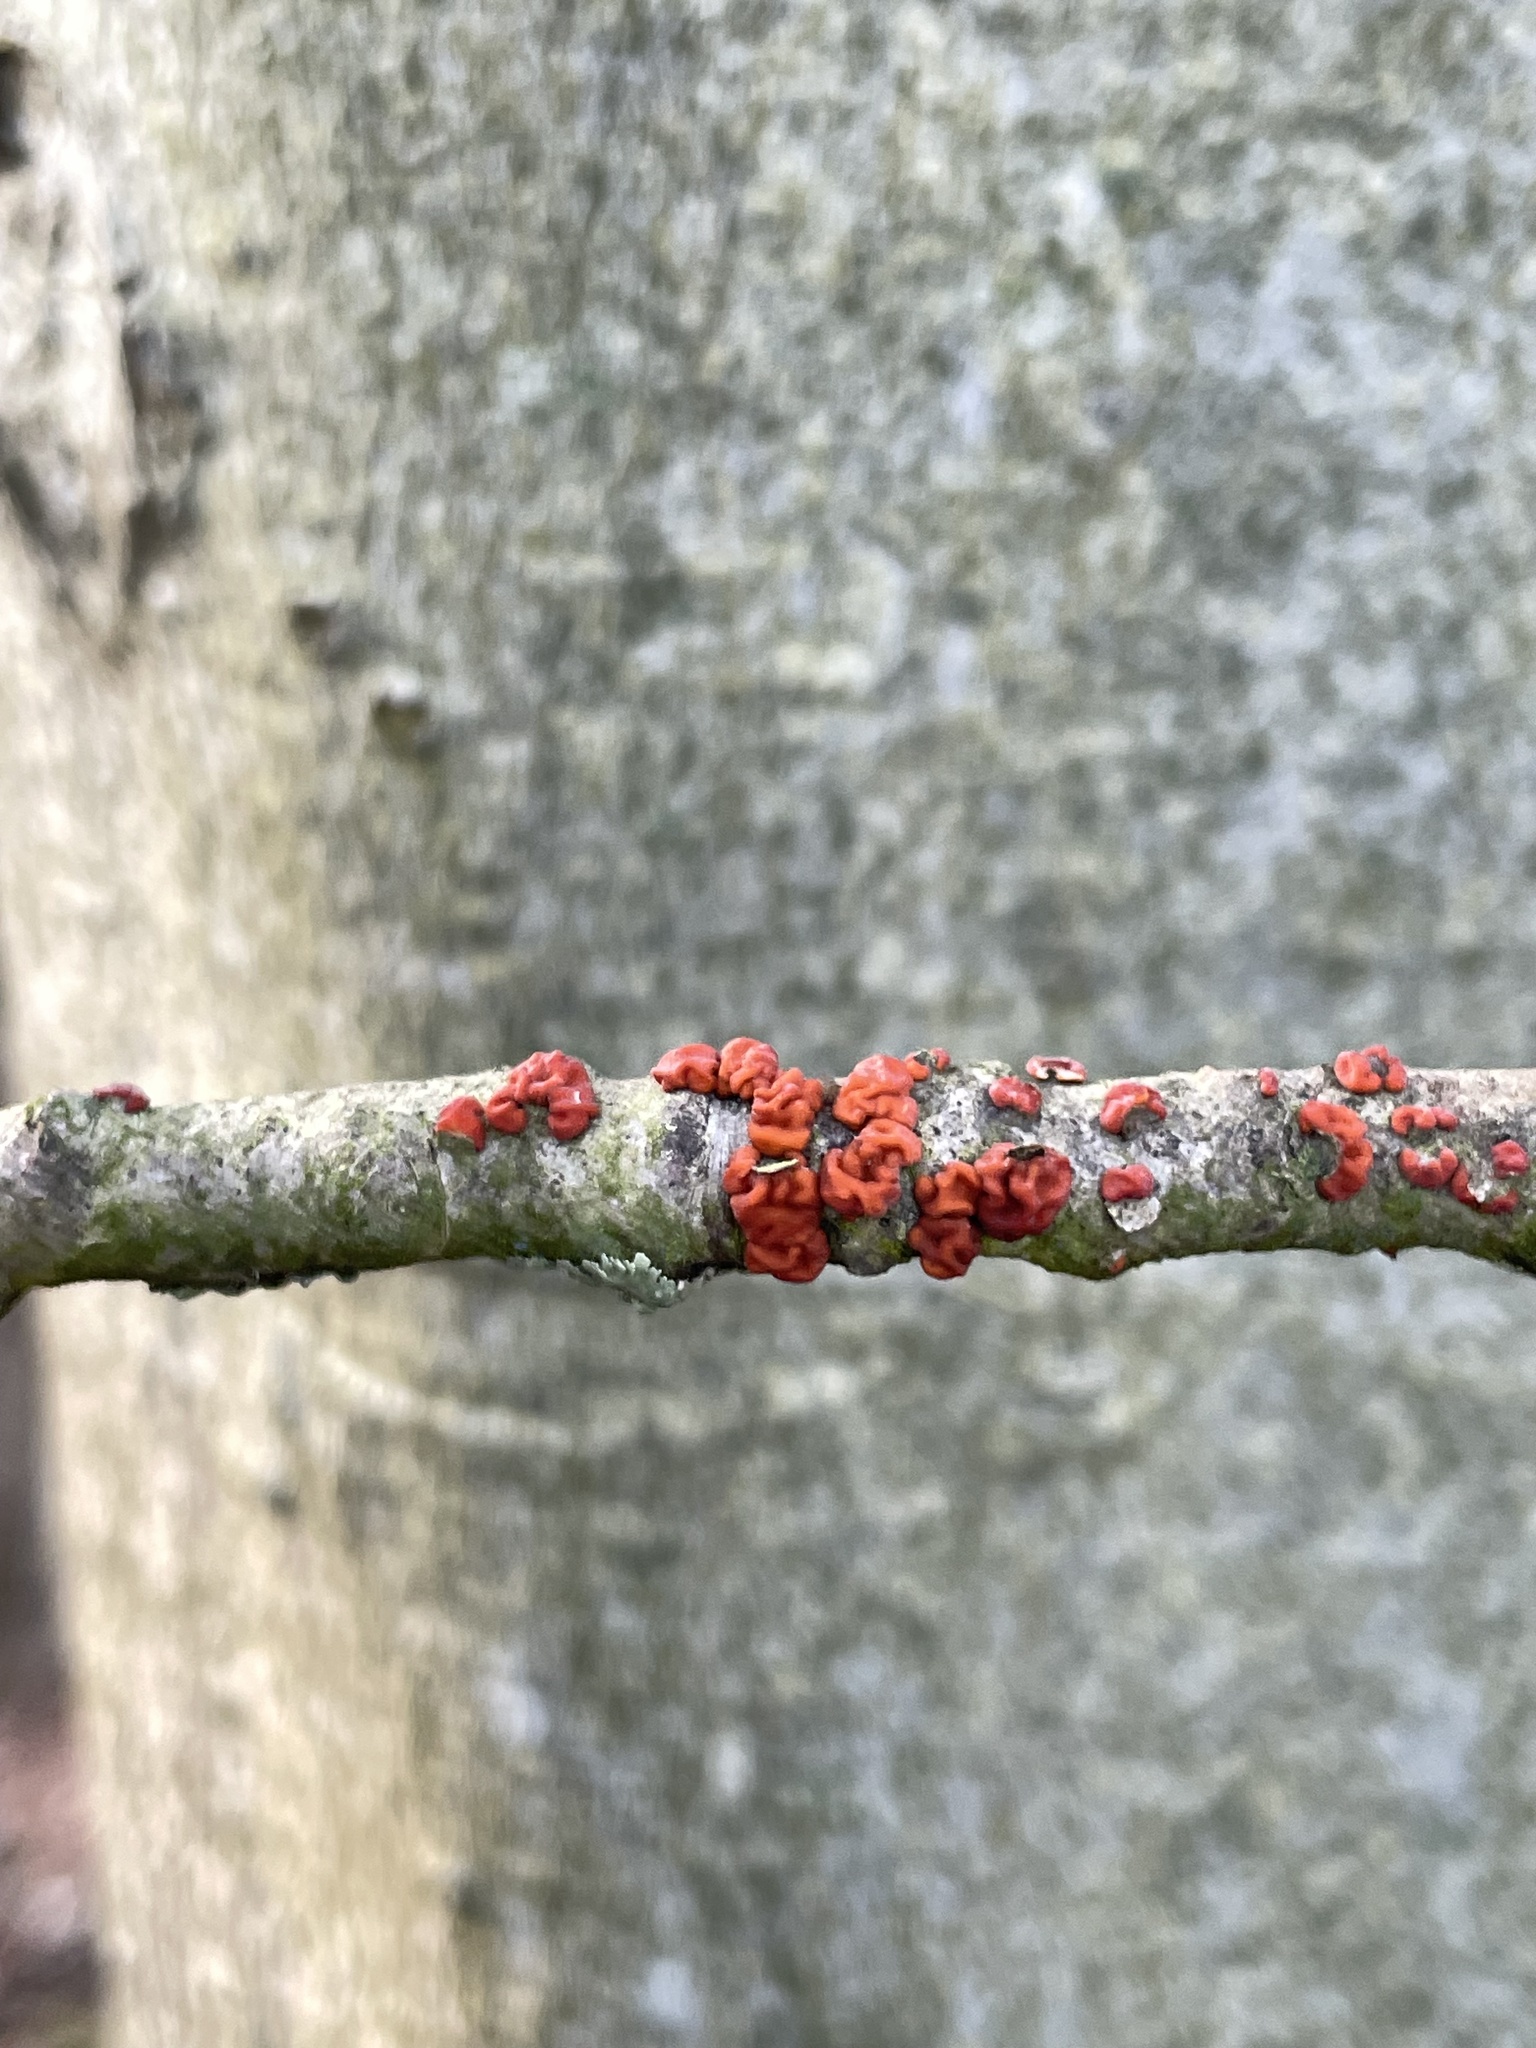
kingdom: Fungi
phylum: Basidiomycota
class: Agaricomycetes
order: Russulales
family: Peniophoraceae
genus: Peniophora
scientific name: Peniophora rufa
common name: Red tree brain fungus
